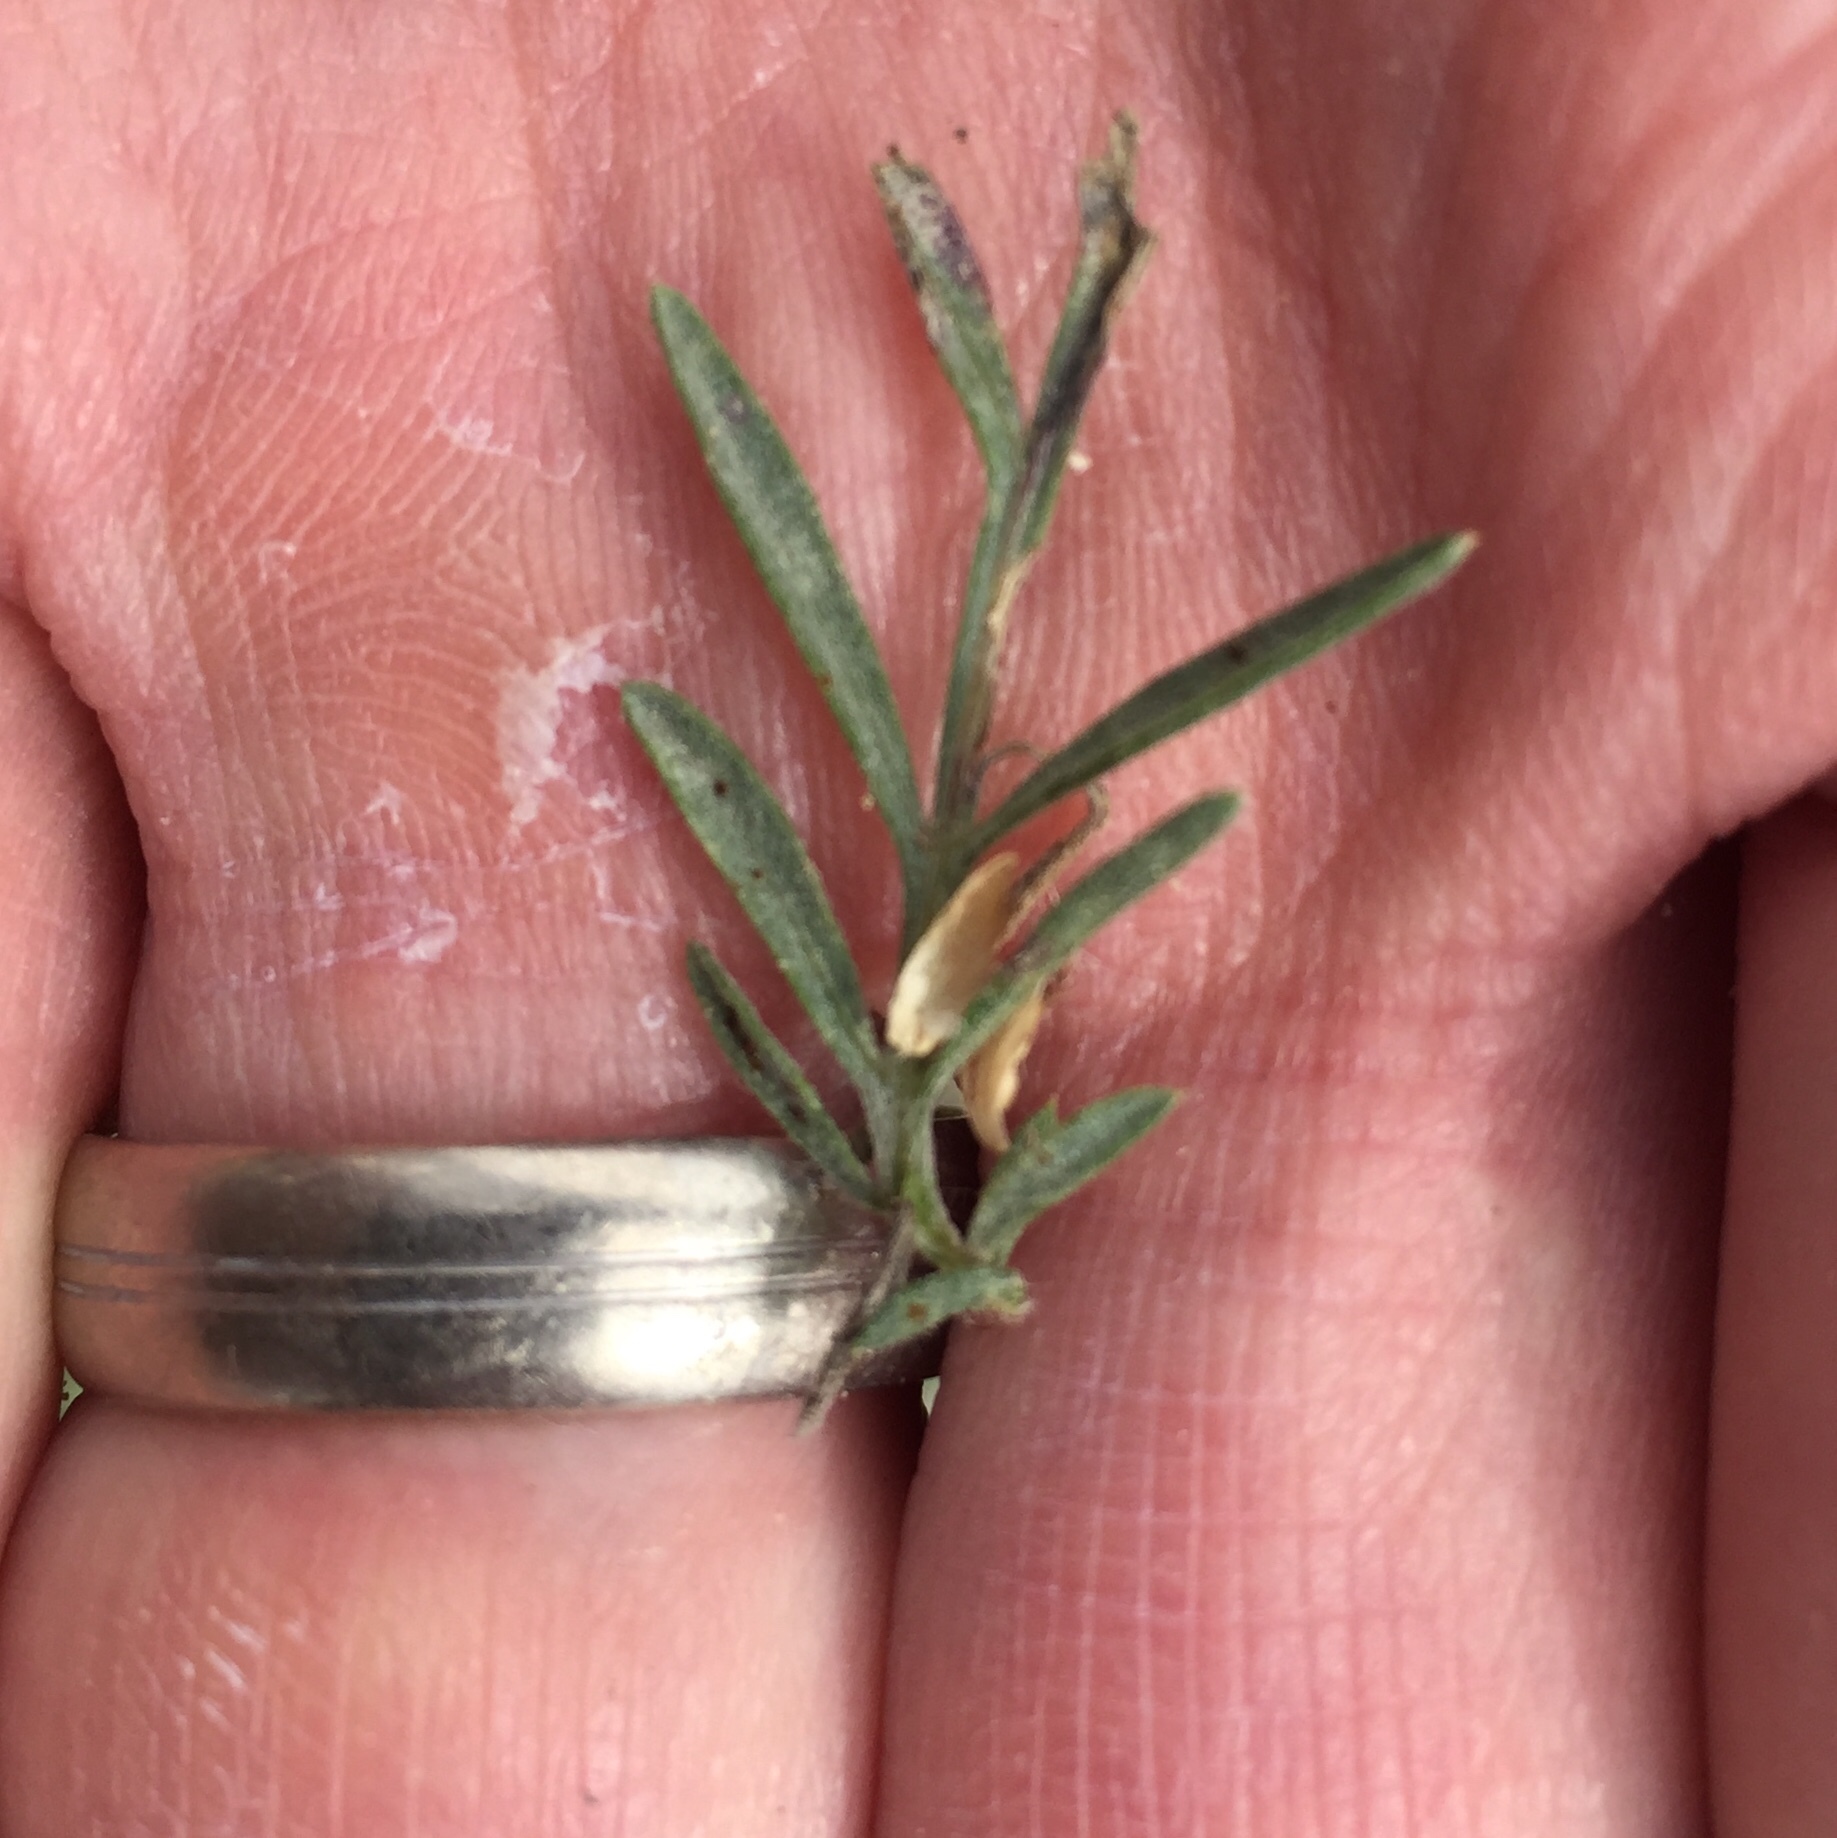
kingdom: Plantae
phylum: Tracheophyta
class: Magnoliopsida
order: Asterales
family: Asteraceae
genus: Centaurea
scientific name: Centaurea stoebe
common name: Spotted knapweed
